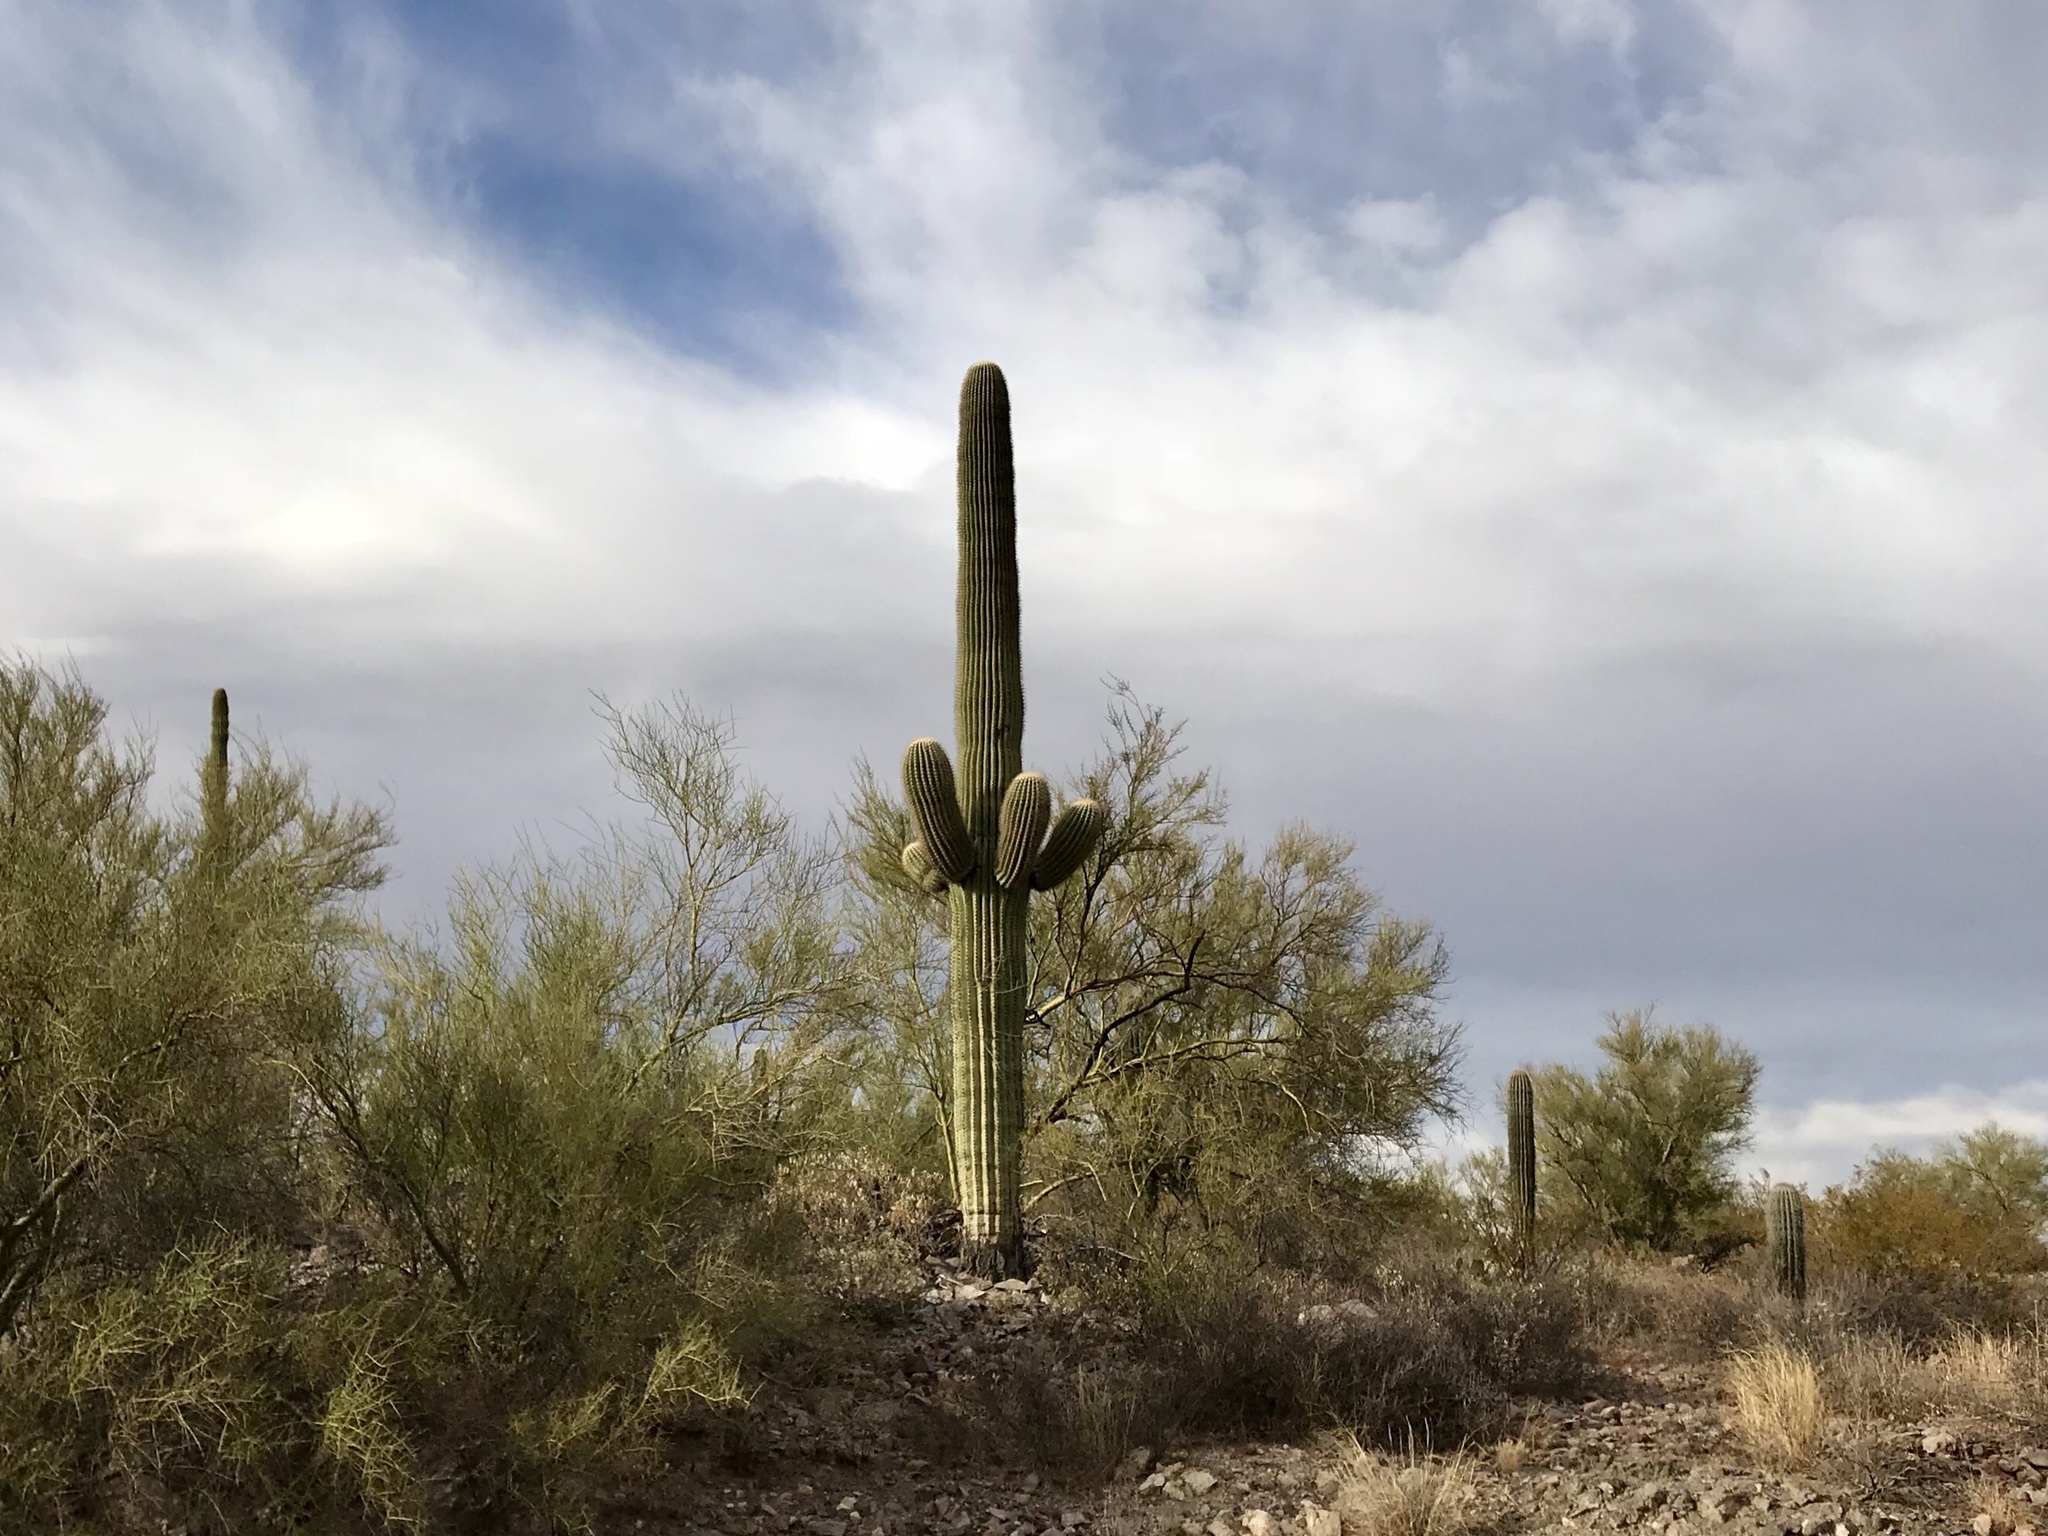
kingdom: Plantae
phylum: Tracheophyta
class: Magnoliopsida
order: Caryophyllales
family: Cactaceae
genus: Carnegiea
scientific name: Carnegiea gigantea
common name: Saguaro
